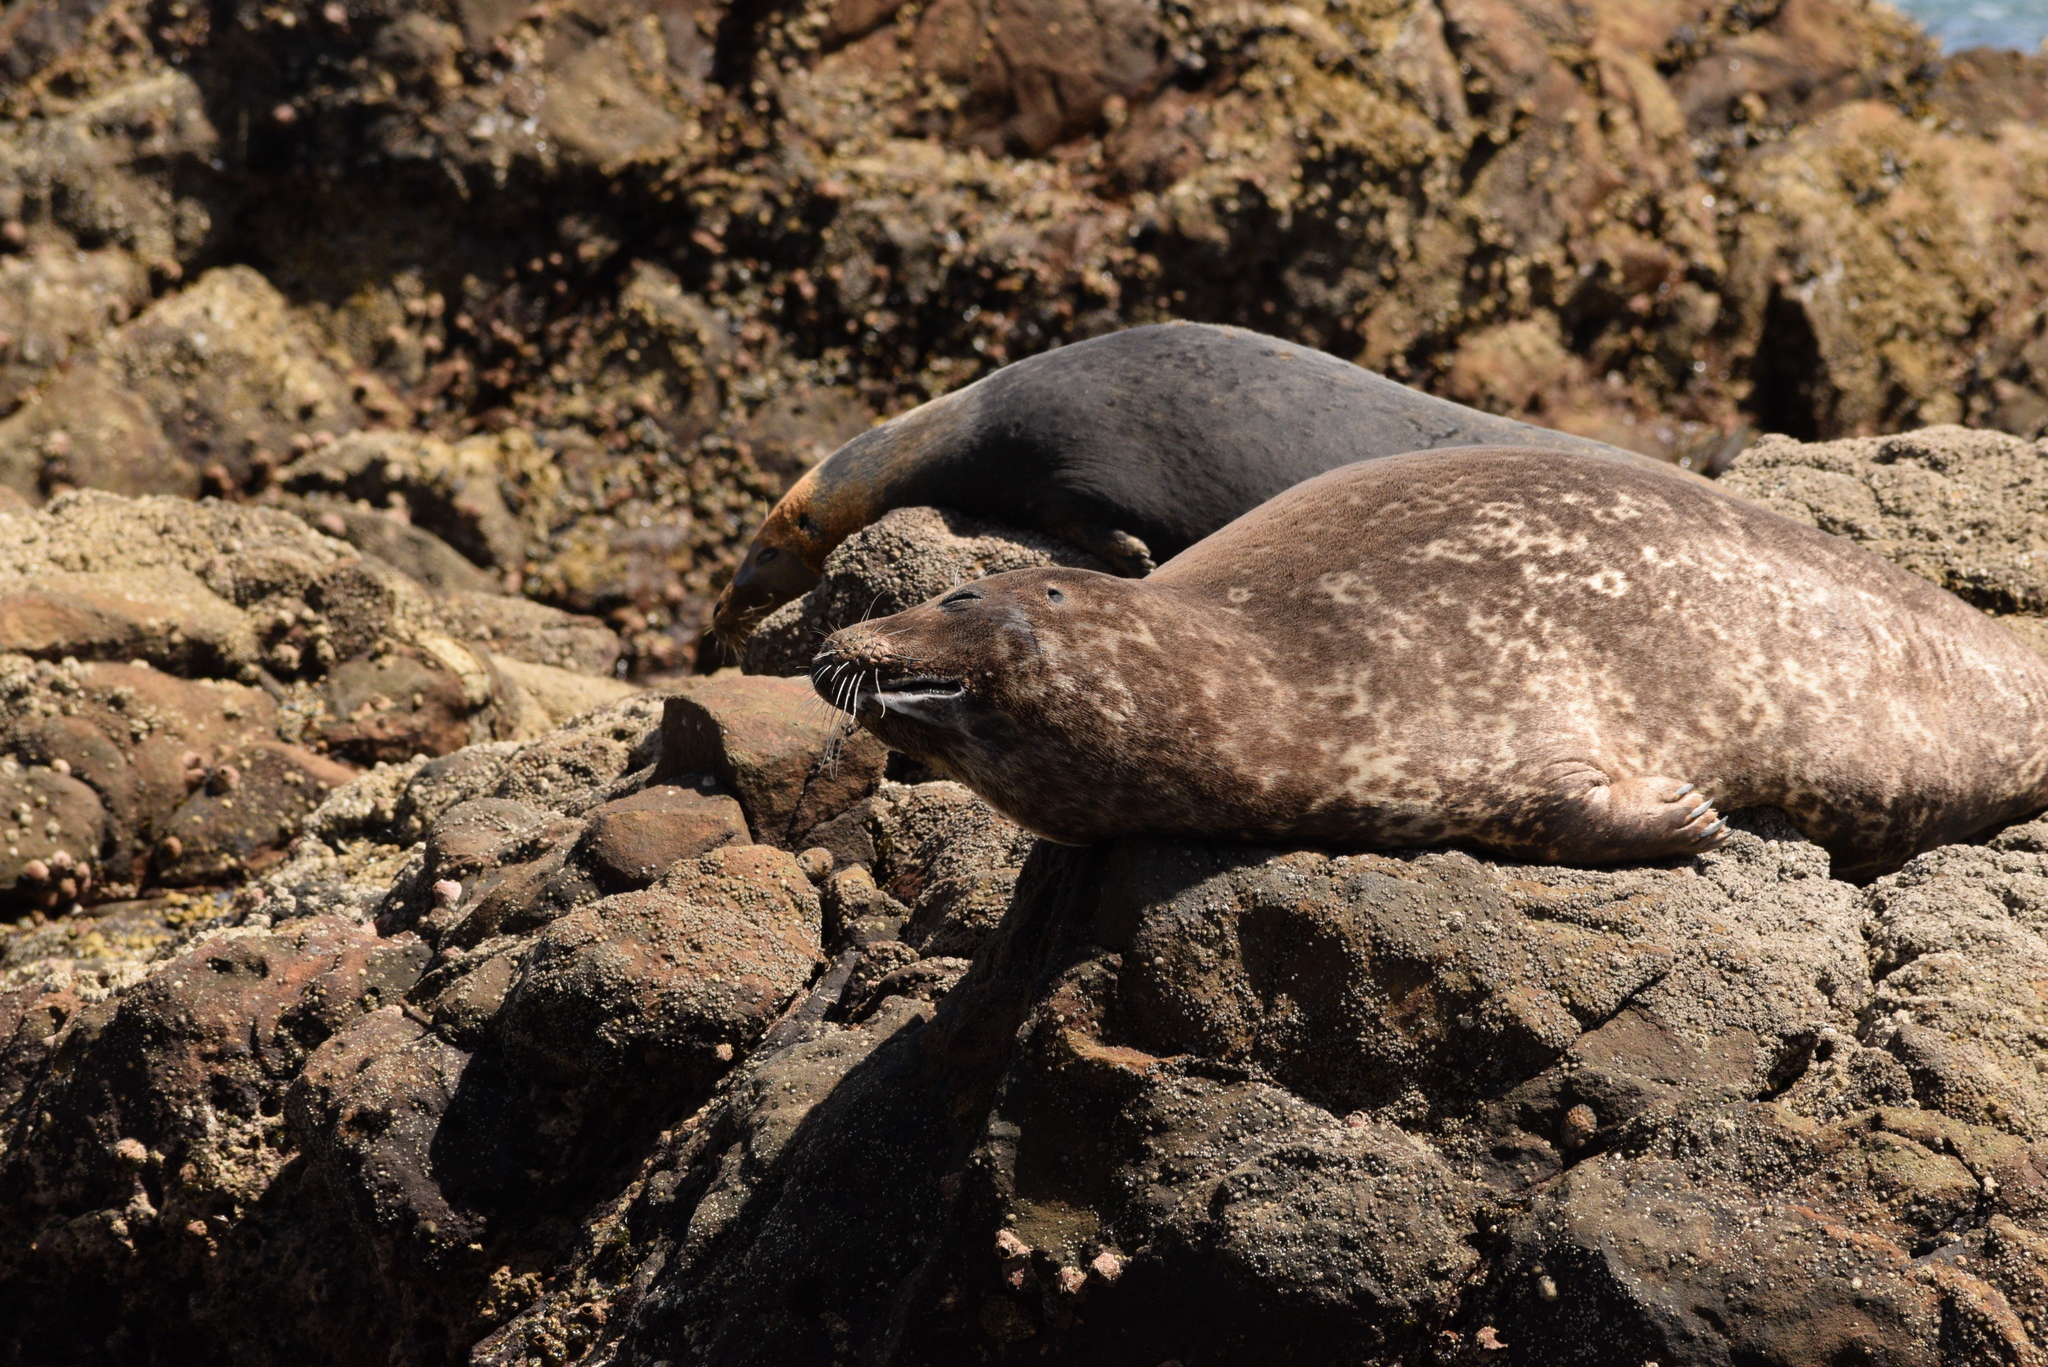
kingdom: Animalia
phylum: Chordata
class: Mammalia
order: Carnivora
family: Phocidae
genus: Phoca
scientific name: Phoca vitulina
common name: Harbor seal
